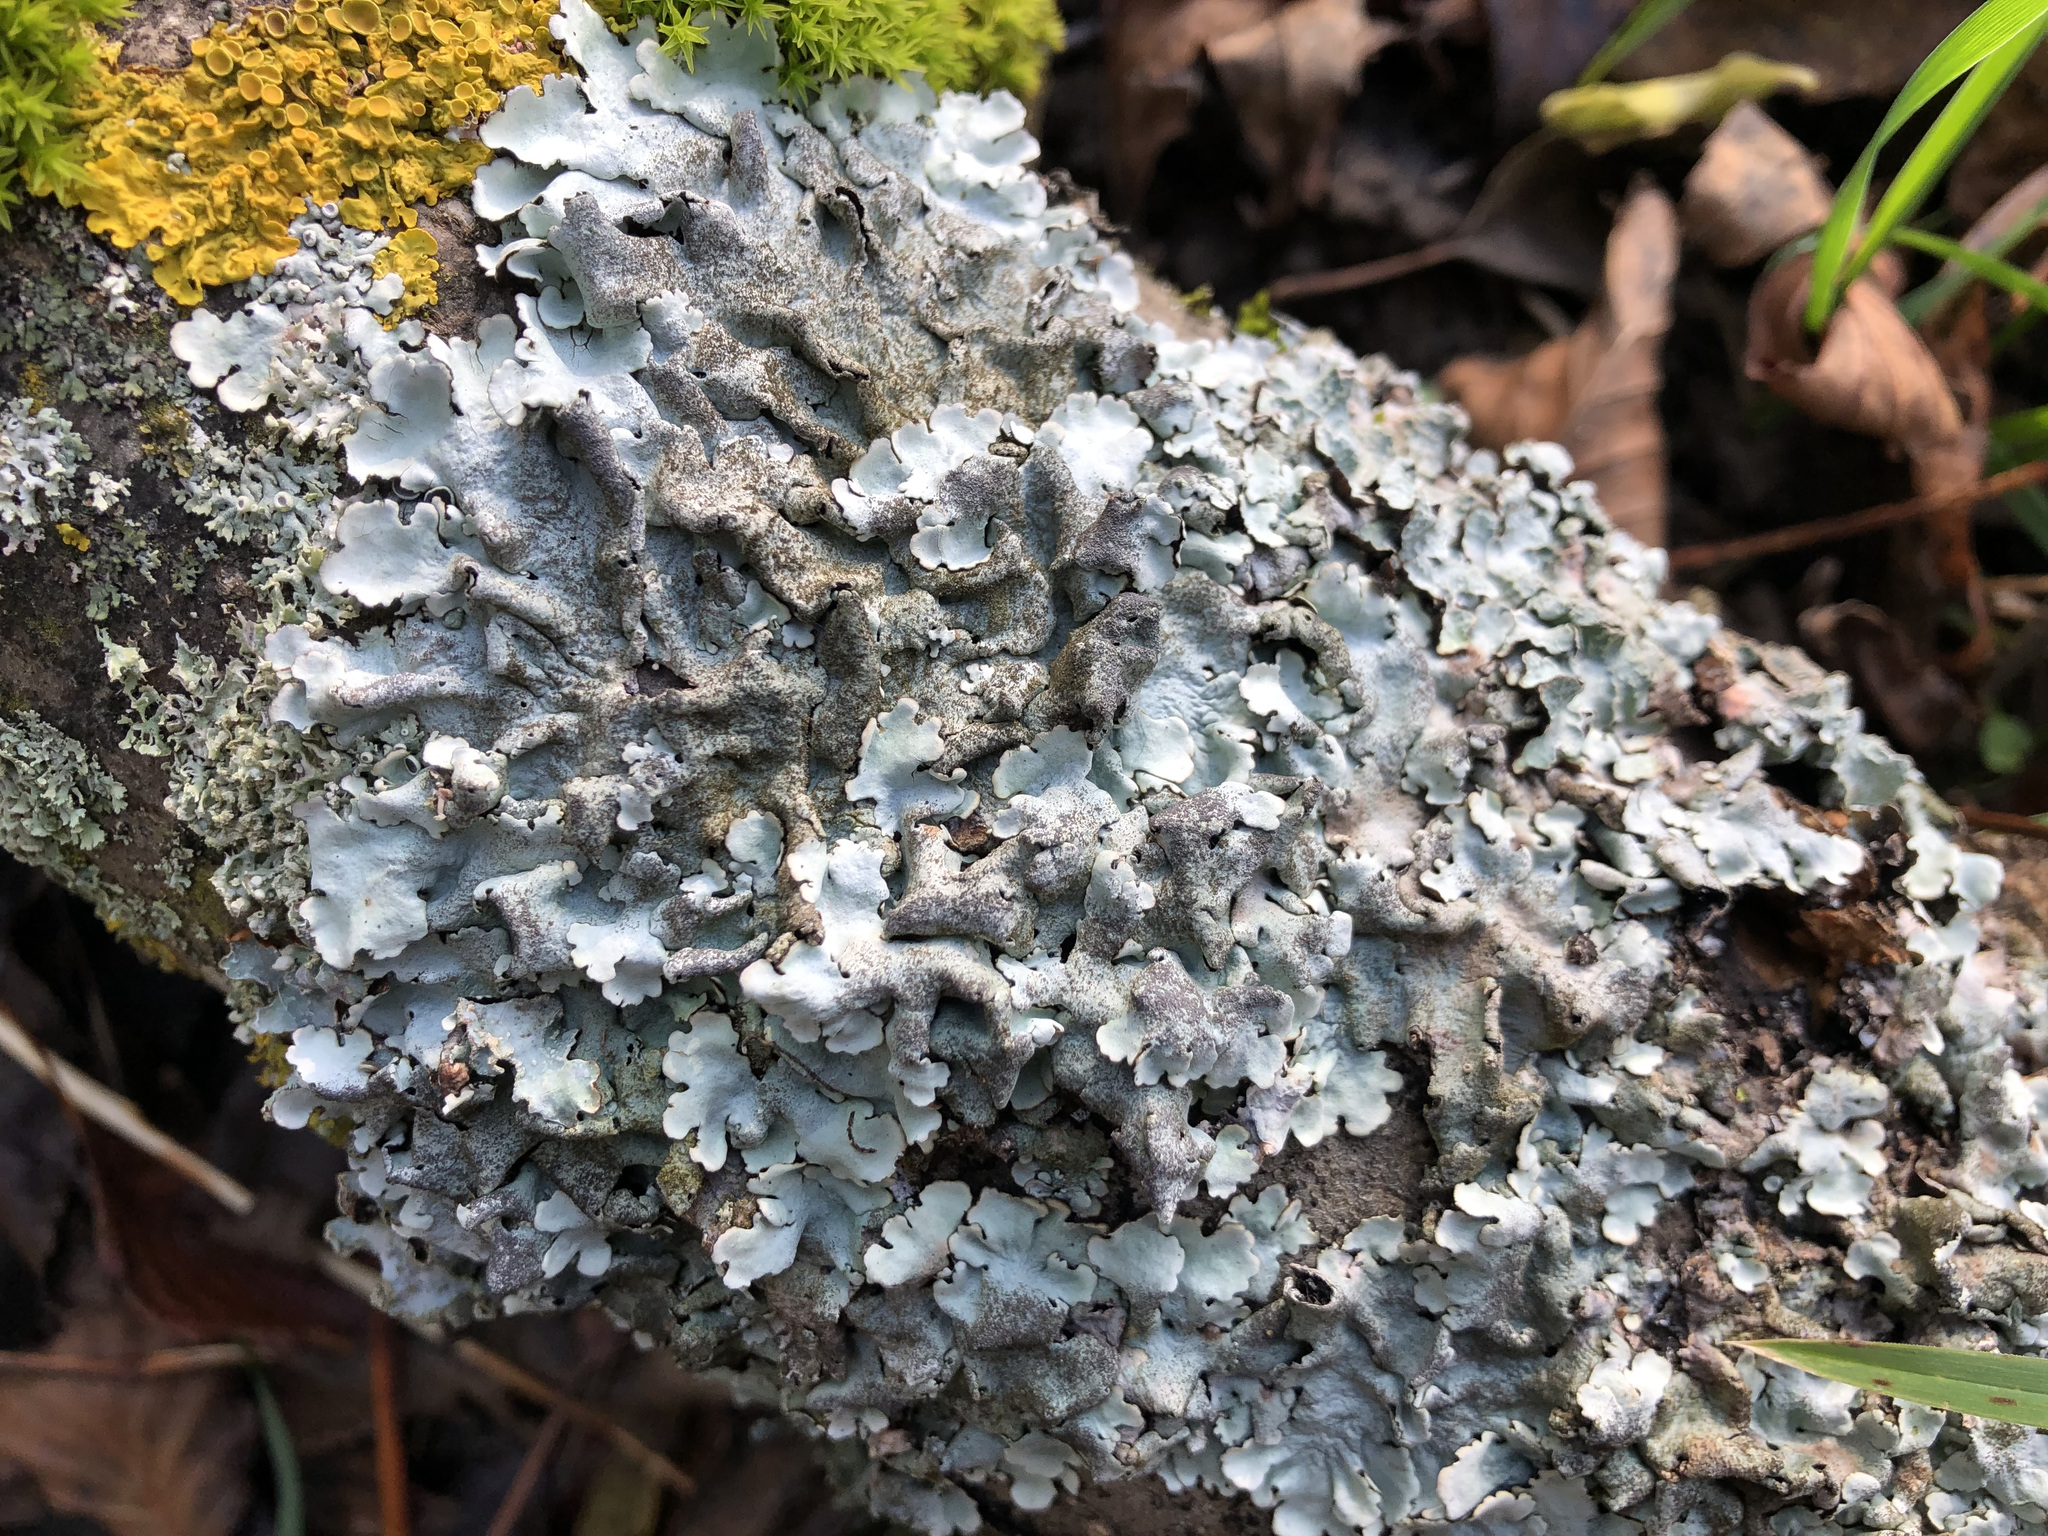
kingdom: Fungi
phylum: Ascomycota
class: Lecanoromycetes
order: Lecanorales
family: Parmeliaceae
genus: Parmelina
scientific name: Parmelina tiliacea
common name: Linden shield lichen
